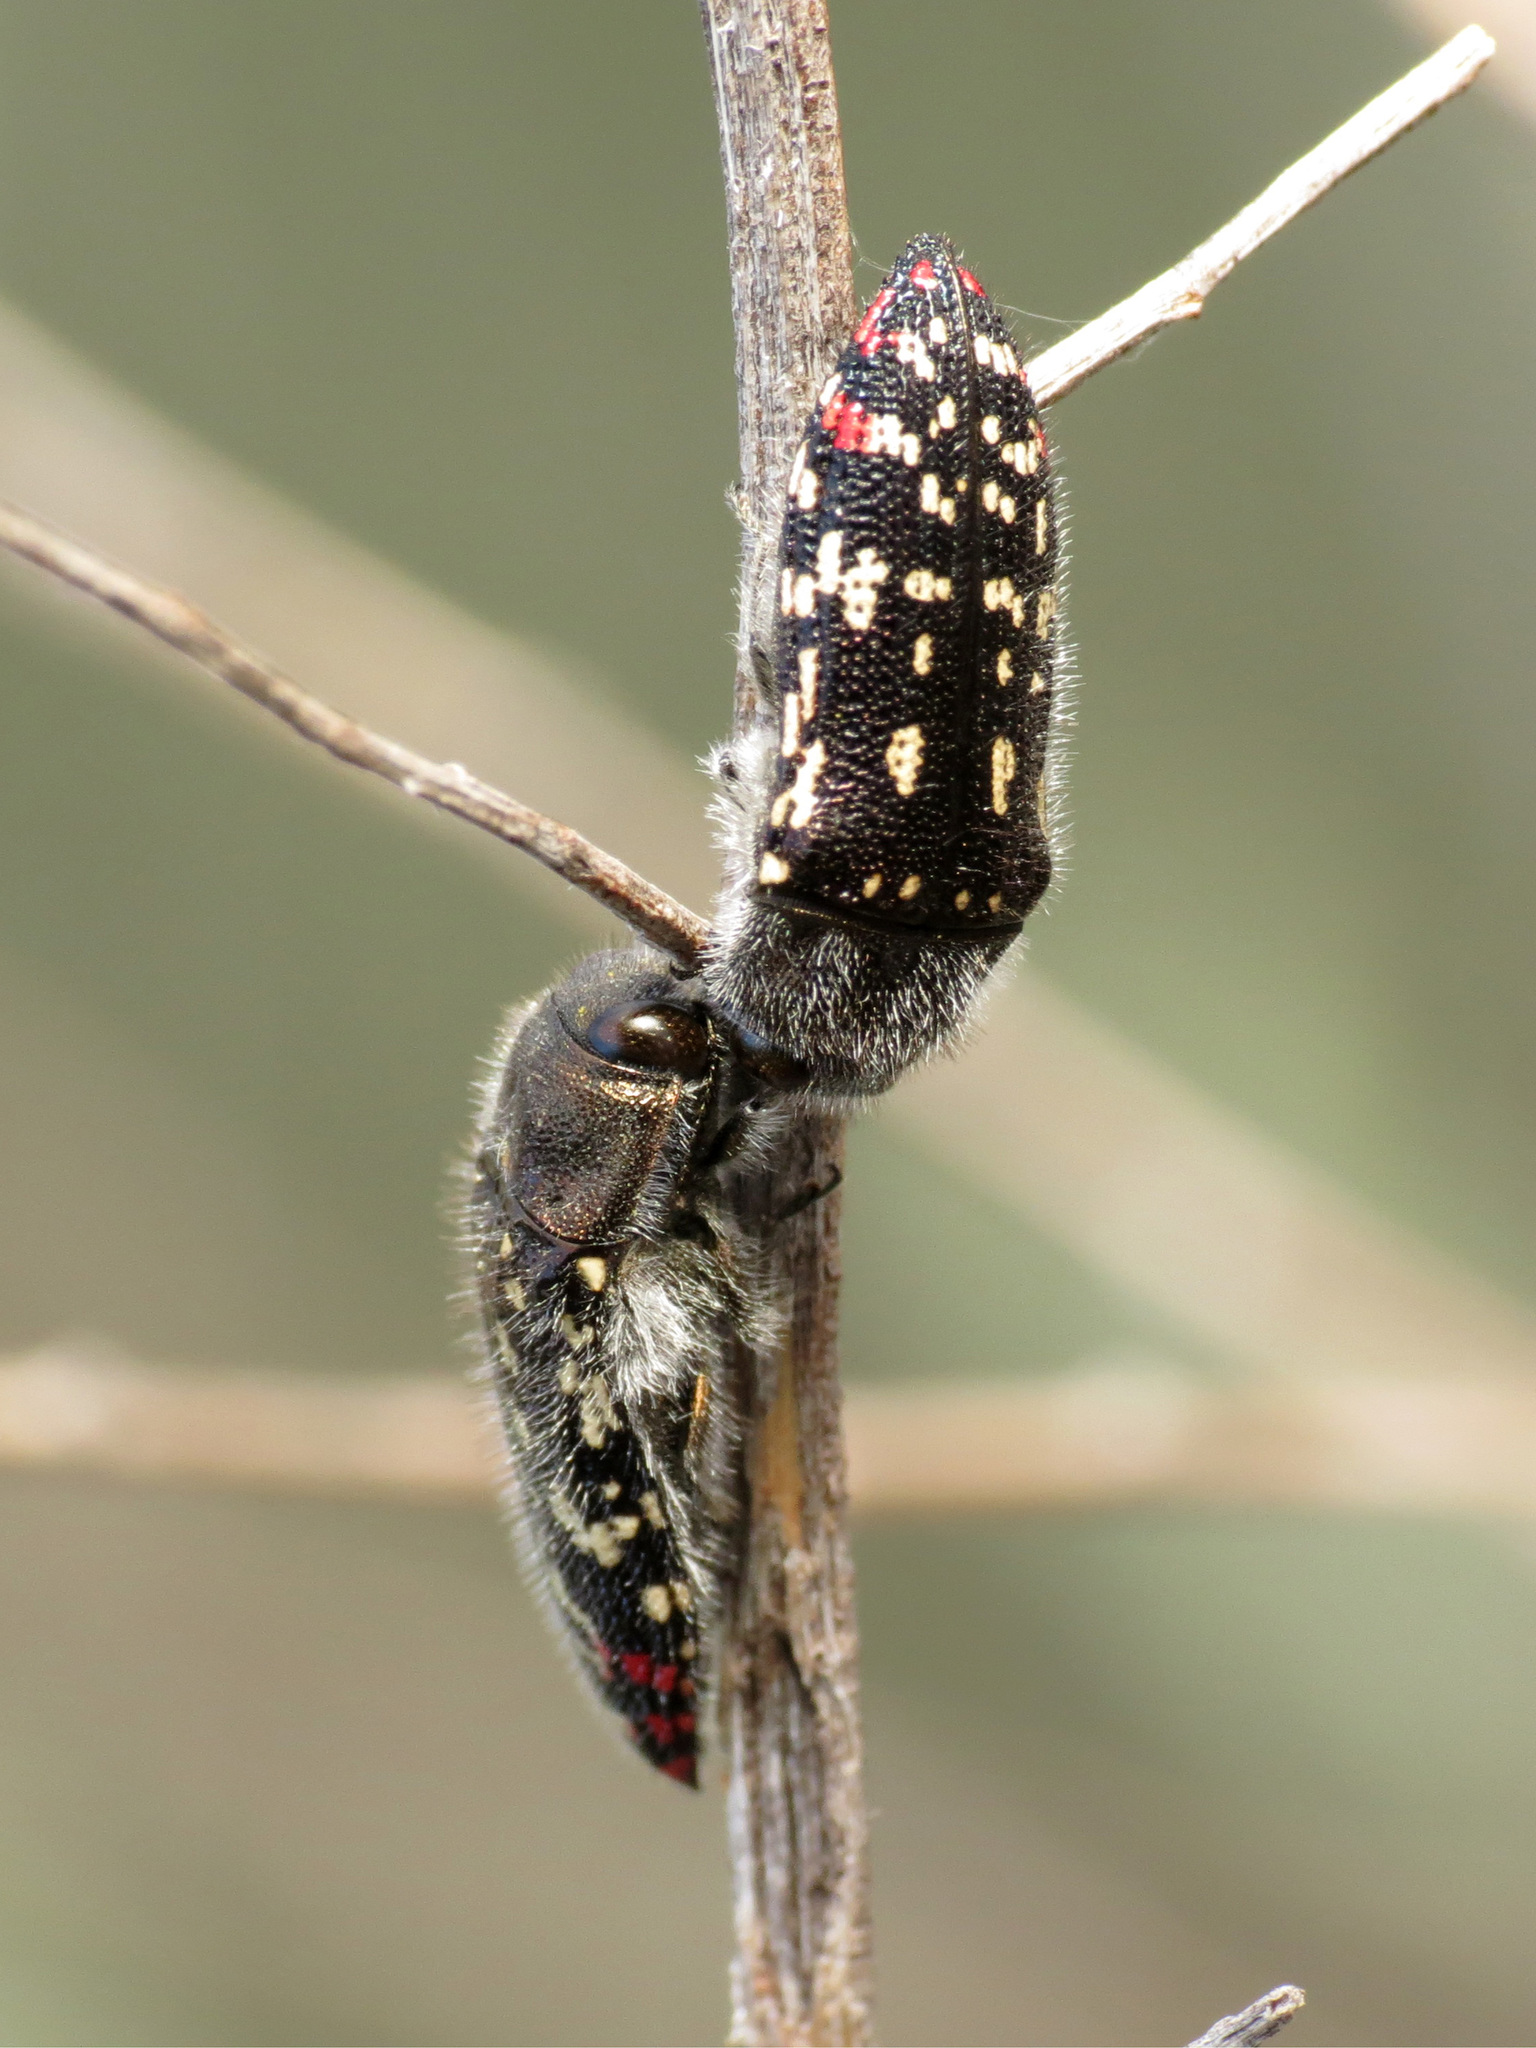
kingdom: Animalia
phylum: Arthropoda
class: Insecta
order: Coleoptera
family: Buprestidae
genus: Acmaeodera
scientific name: Acmaeodera rubronotata
